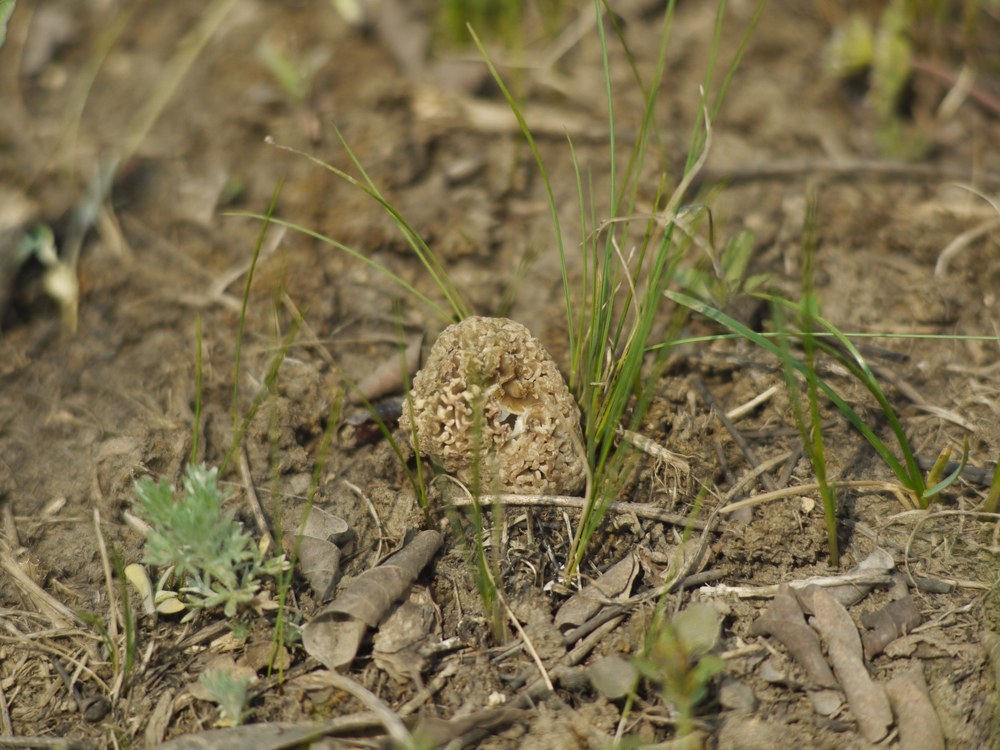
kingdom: Fungi
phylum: Ascomycota
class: Pezizomycetes
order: Pezizales
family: Morchellaceae
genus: Morchella
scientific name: Morchella steppicola
